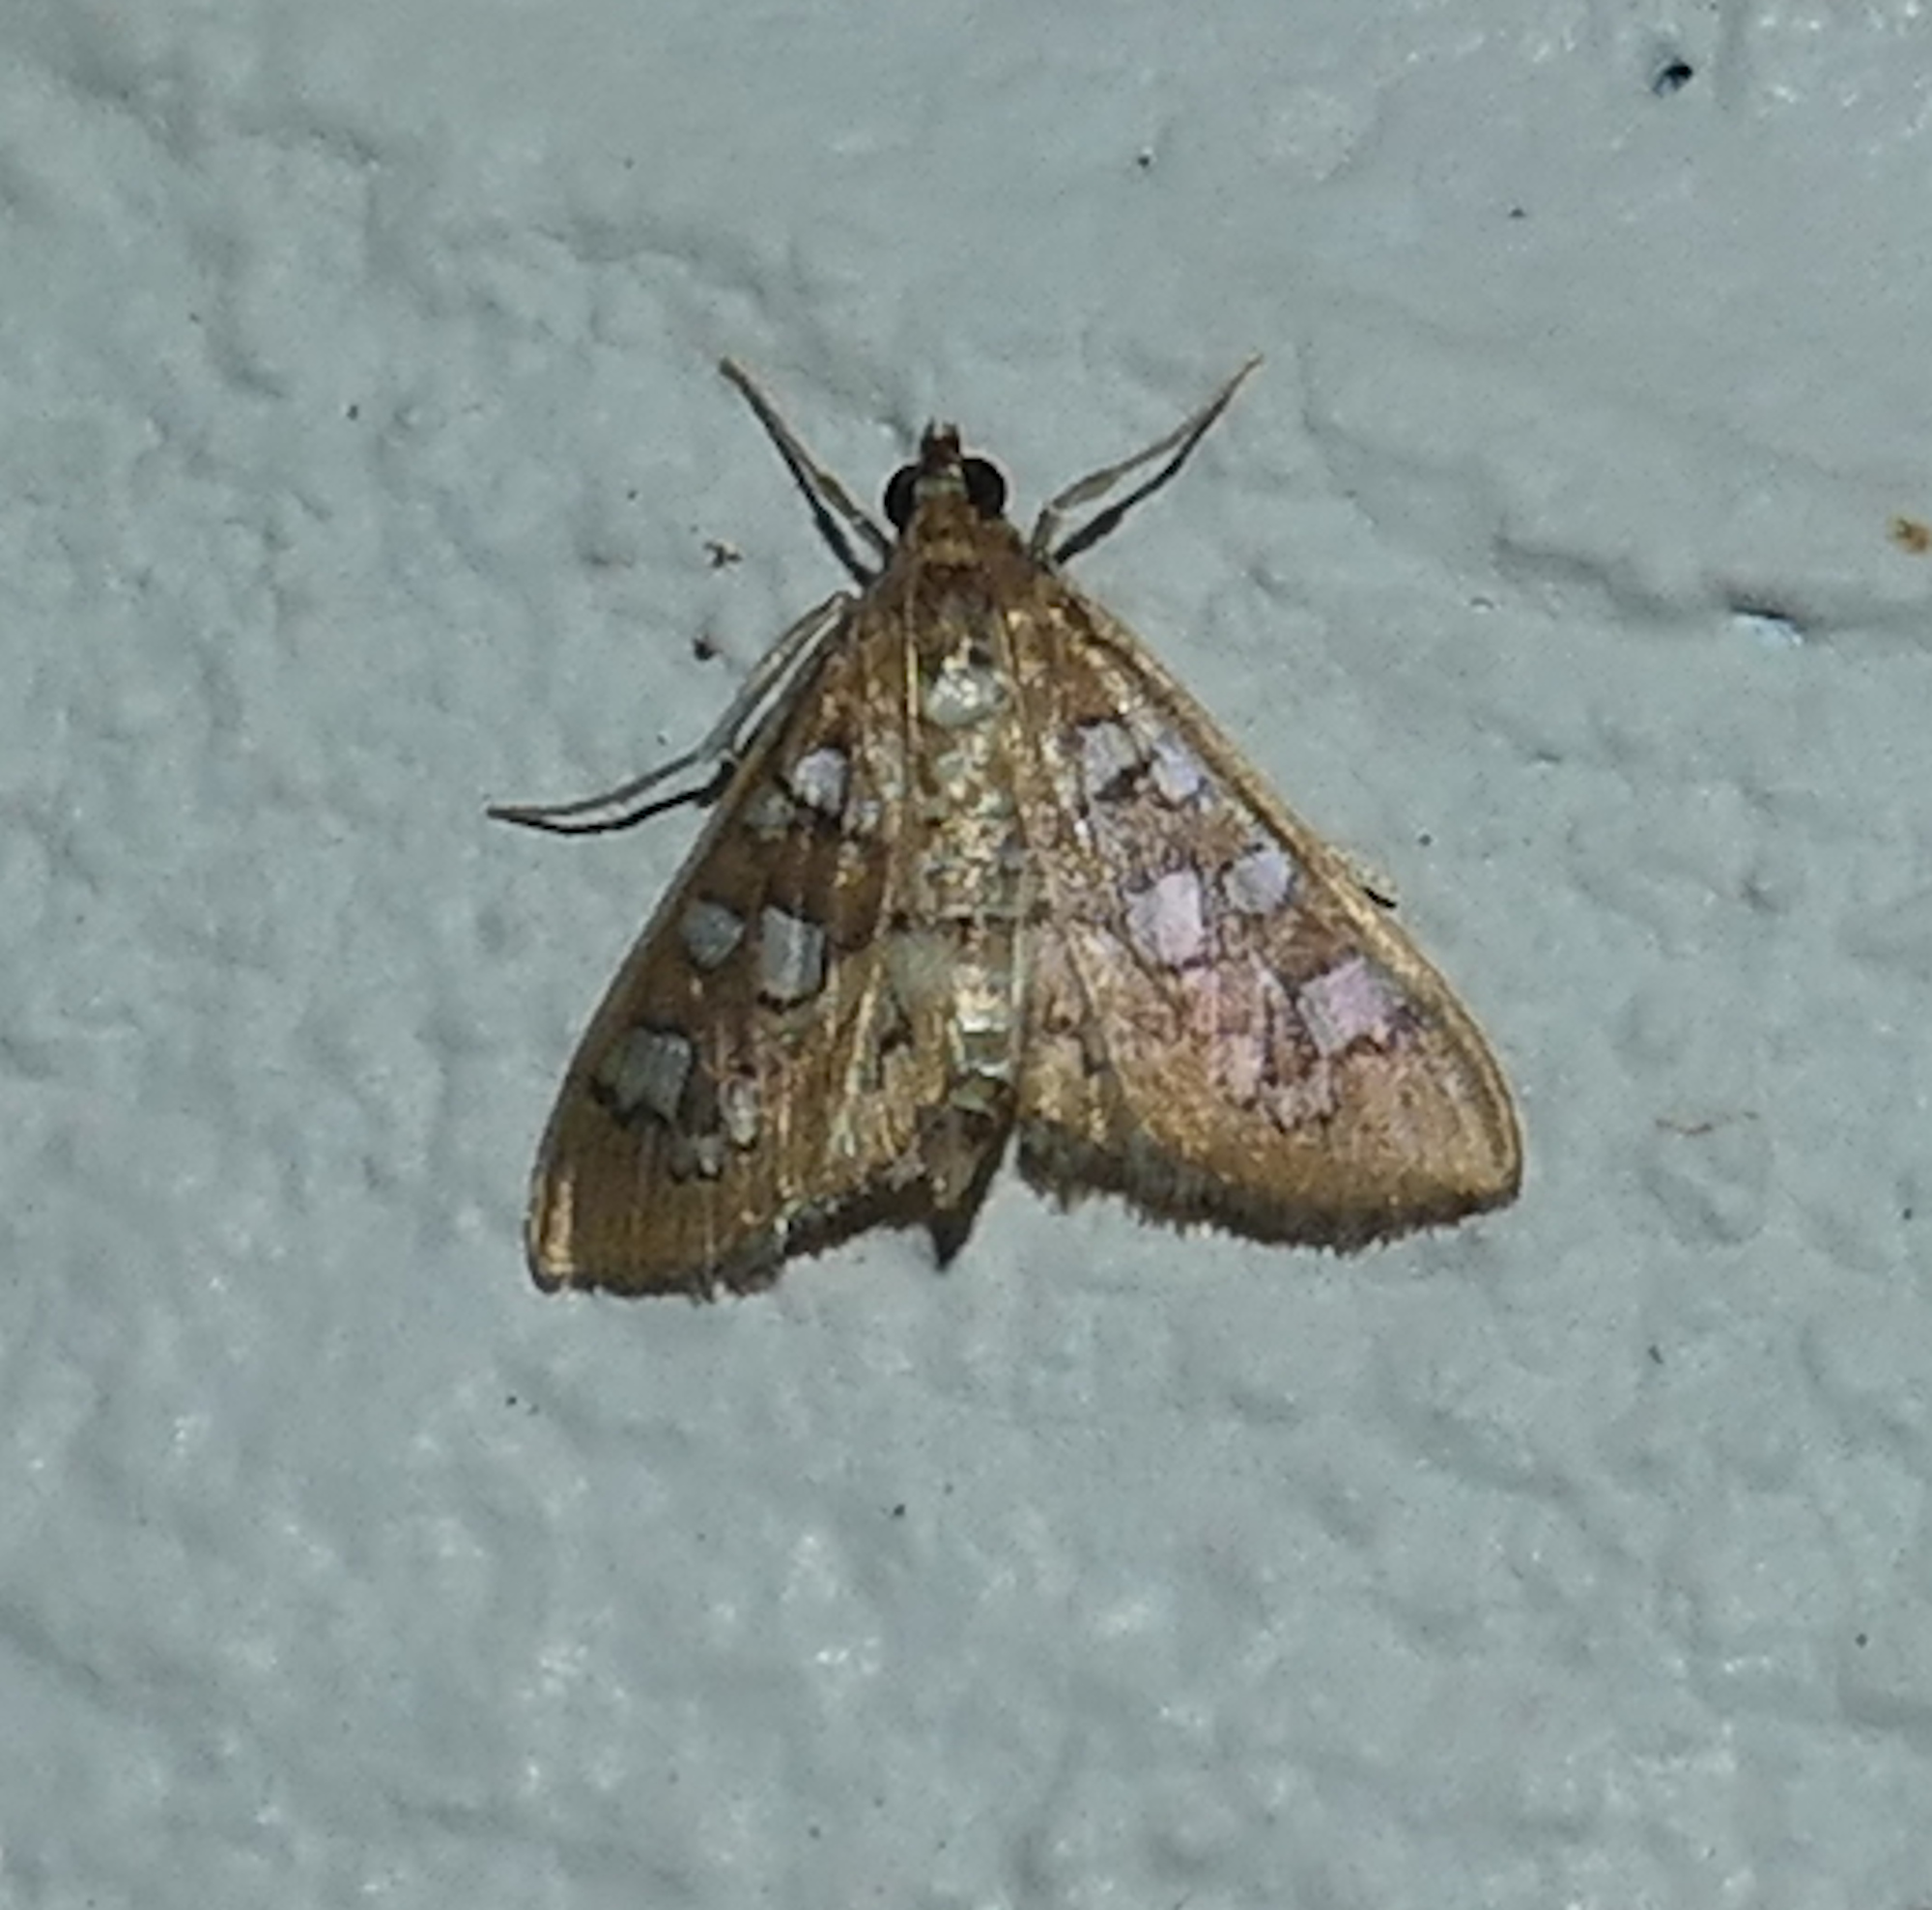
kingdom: Animalia
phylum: Arthropoda
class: Insecta
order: Lepidoptera
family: Crambidae
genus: Samea
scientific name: Samea baccatalis
